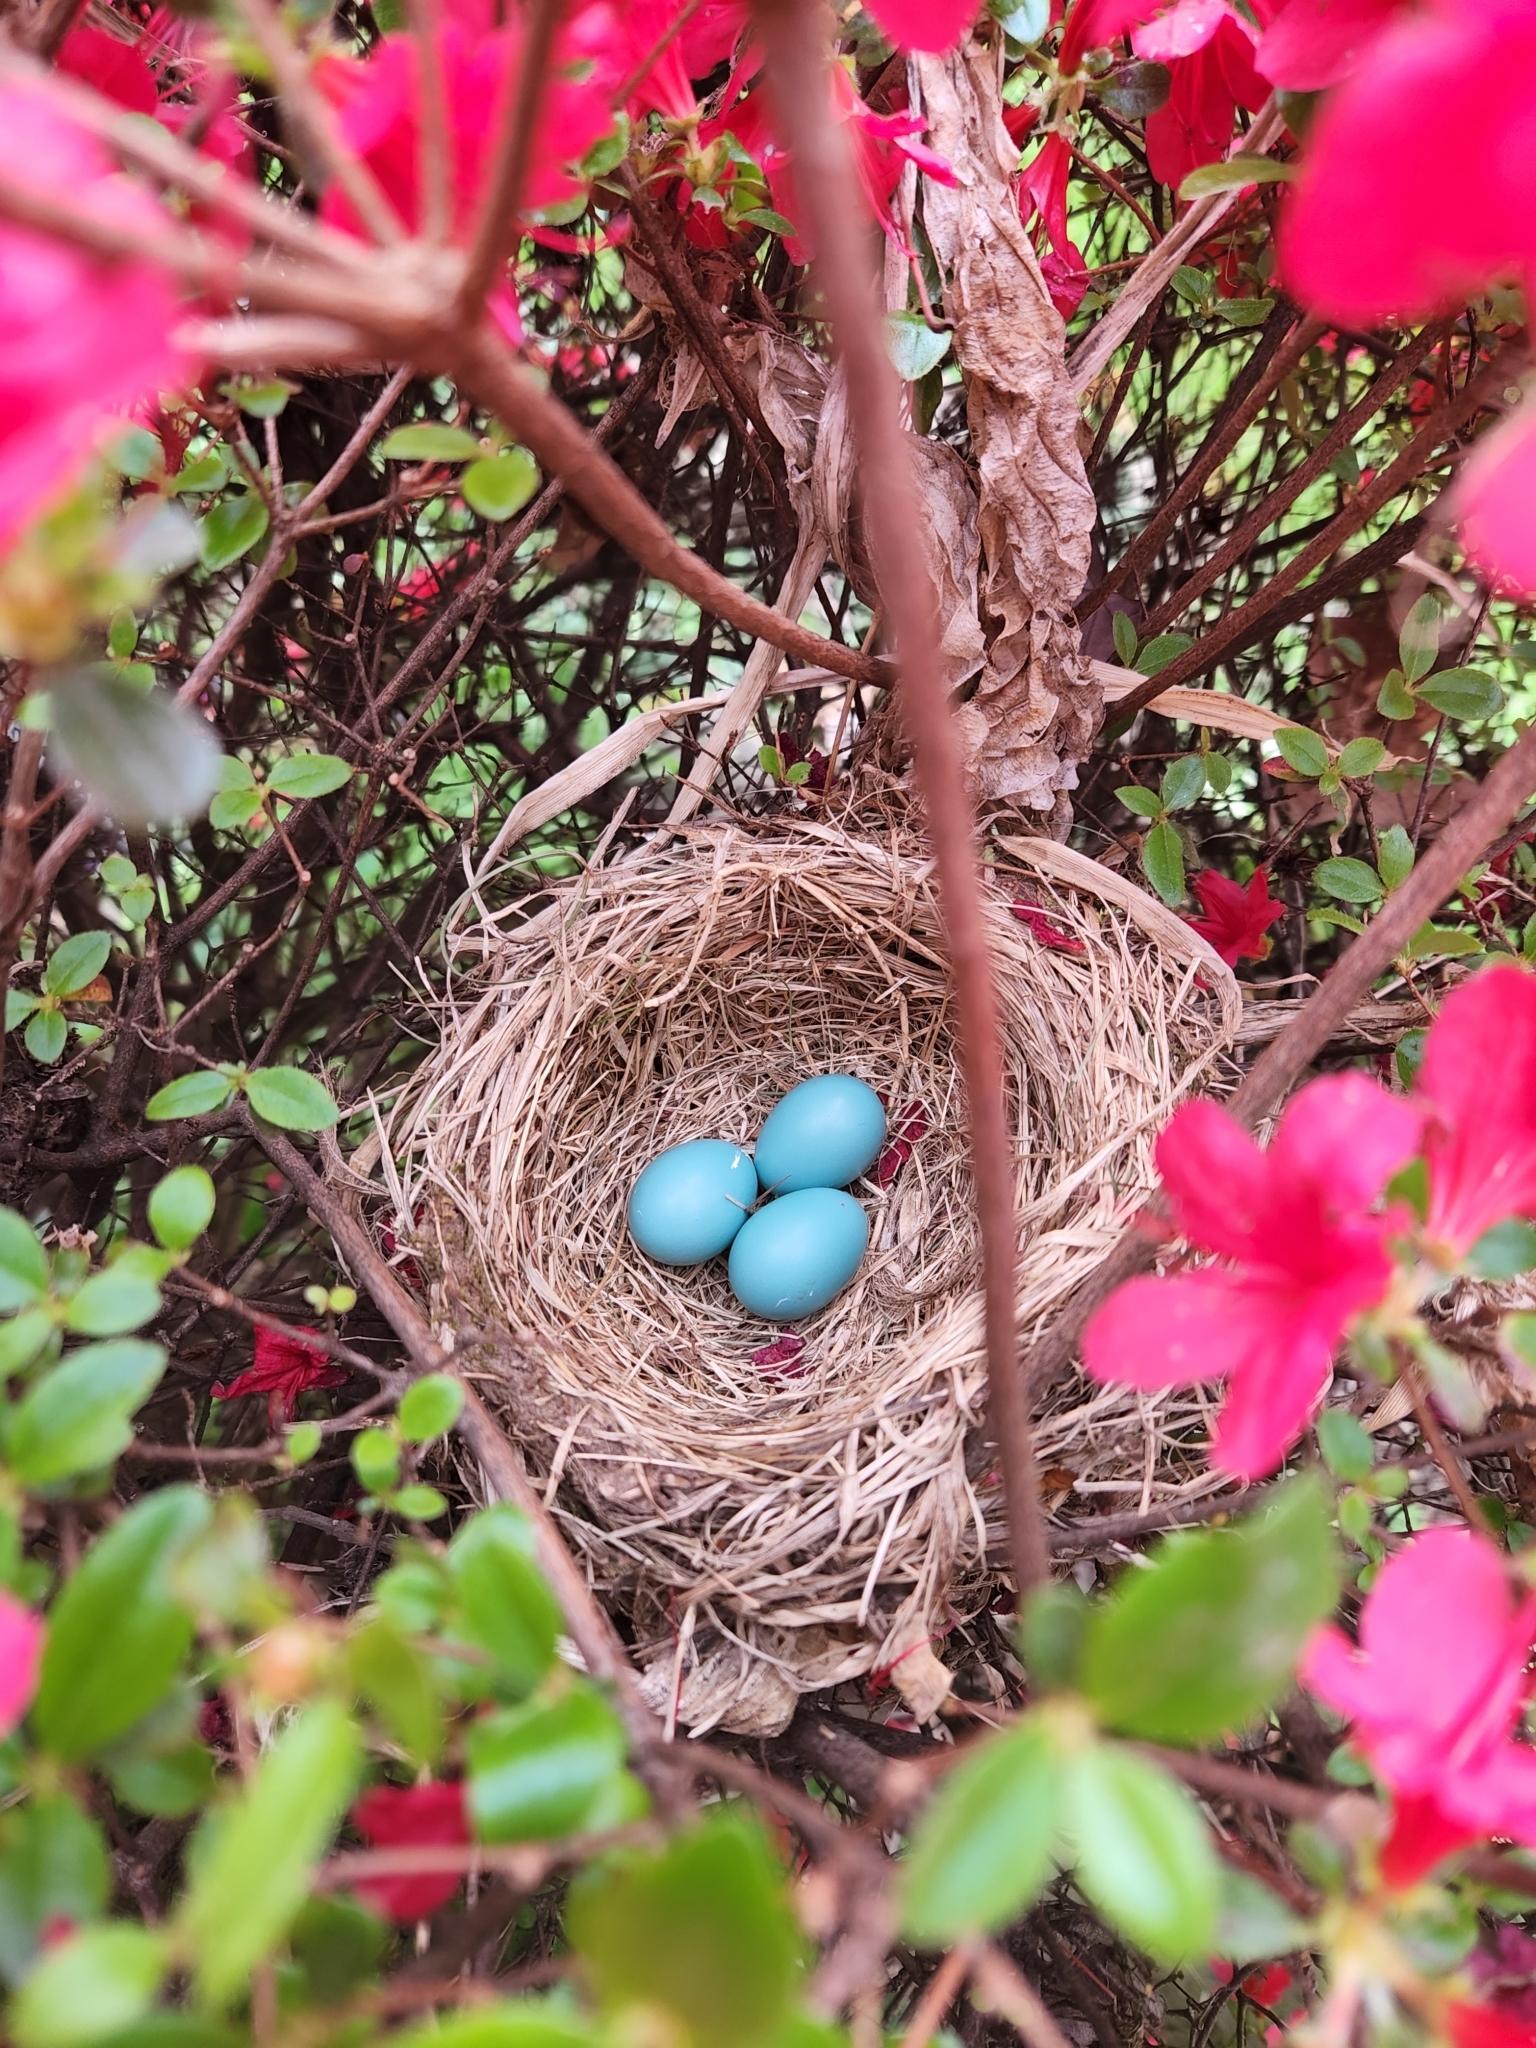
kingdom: Animalia
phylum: Chordata
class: Aves
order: Passeriformes
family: Turdidae
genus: Turdus
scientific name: Turdus migratorius
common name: American robin
